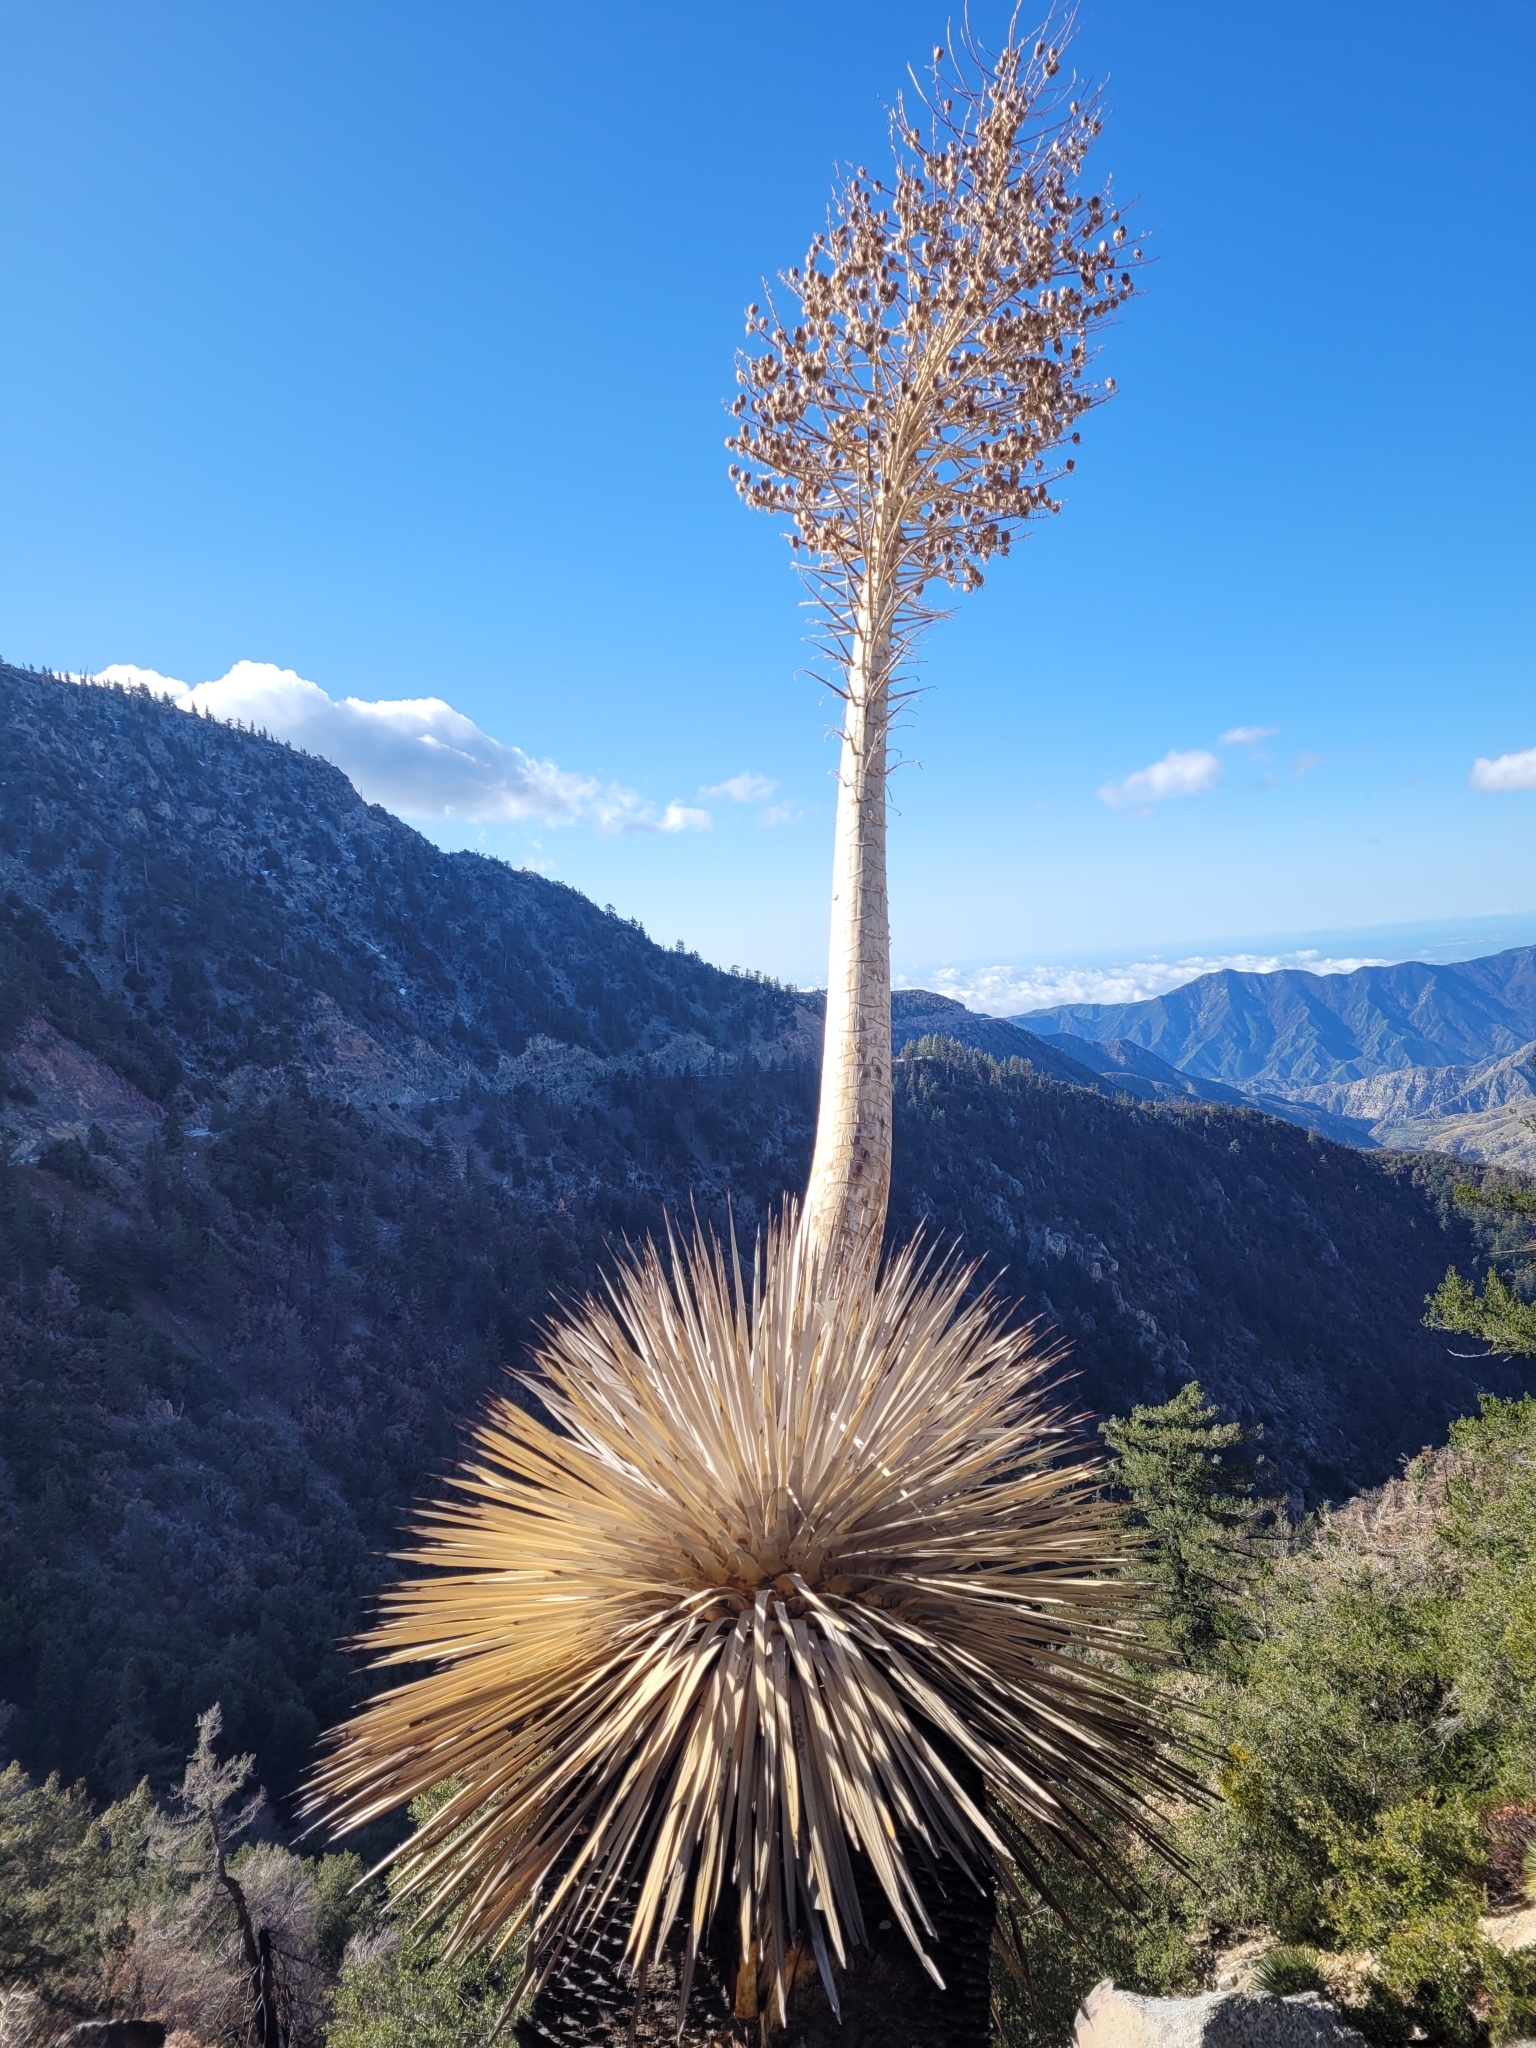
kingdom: Plantae
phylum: Tracheophyta
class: Liliopsida
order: Asparagales
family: Asparagaceae
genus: Hesperoyucca
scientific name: Hesperoyucca whipplei
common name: Our lord's-candle
